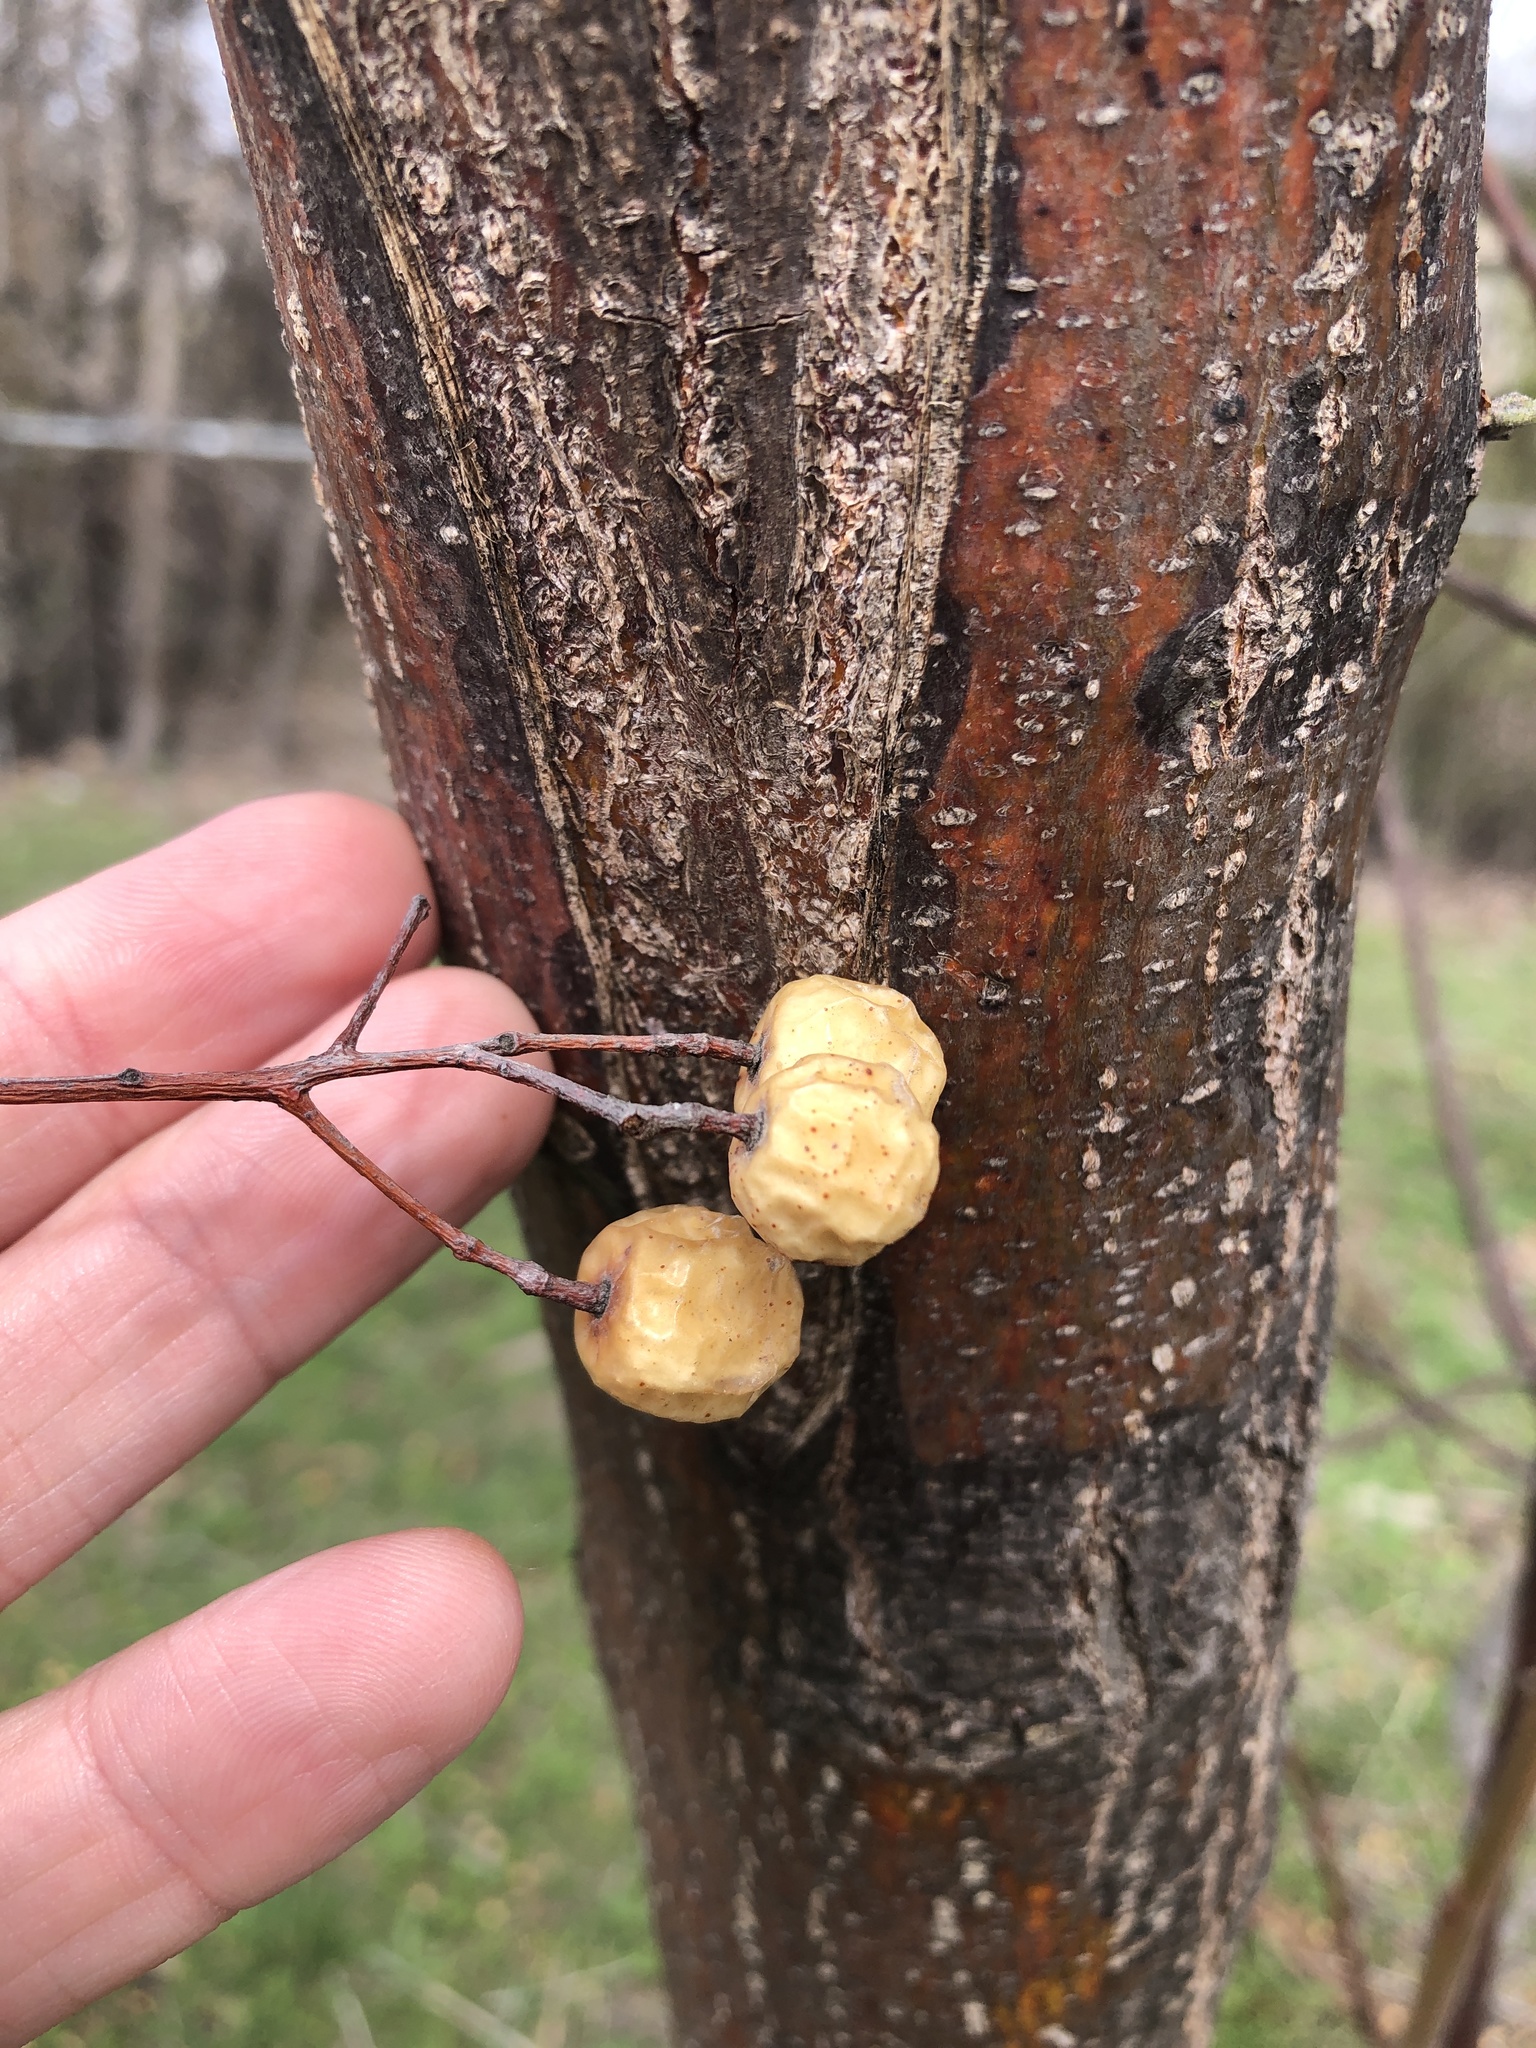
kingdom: Plantae
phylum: Tracheophyta
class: Magnoliopsida
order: Sapindales
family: Meliaceae
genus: Melia
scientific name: Melia azedarach
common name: Chinaberrytree
